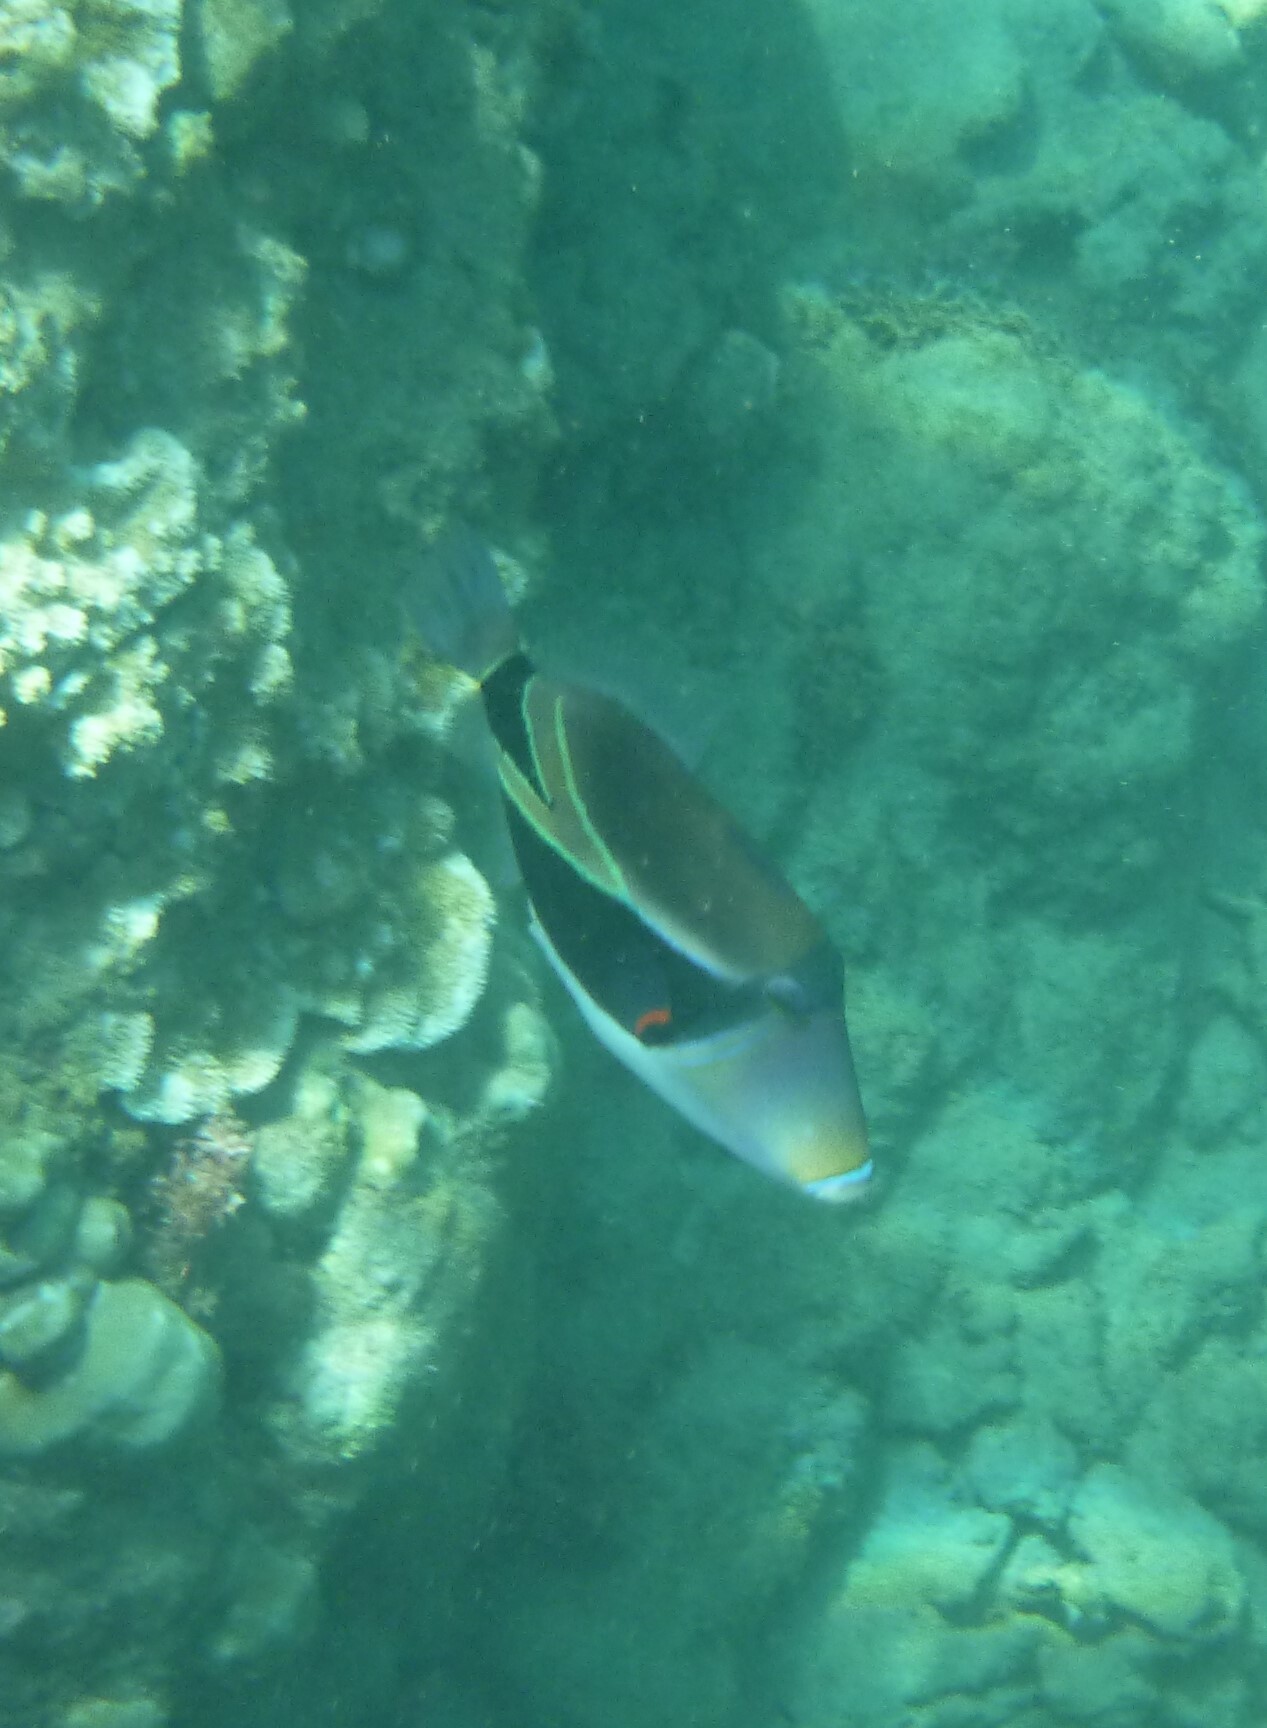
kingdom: Animalia
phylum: Chordata
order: Tetraodontiformes
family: Balistidae
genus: Rhinecanthus
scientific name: Rhinecanthus rectangulus
